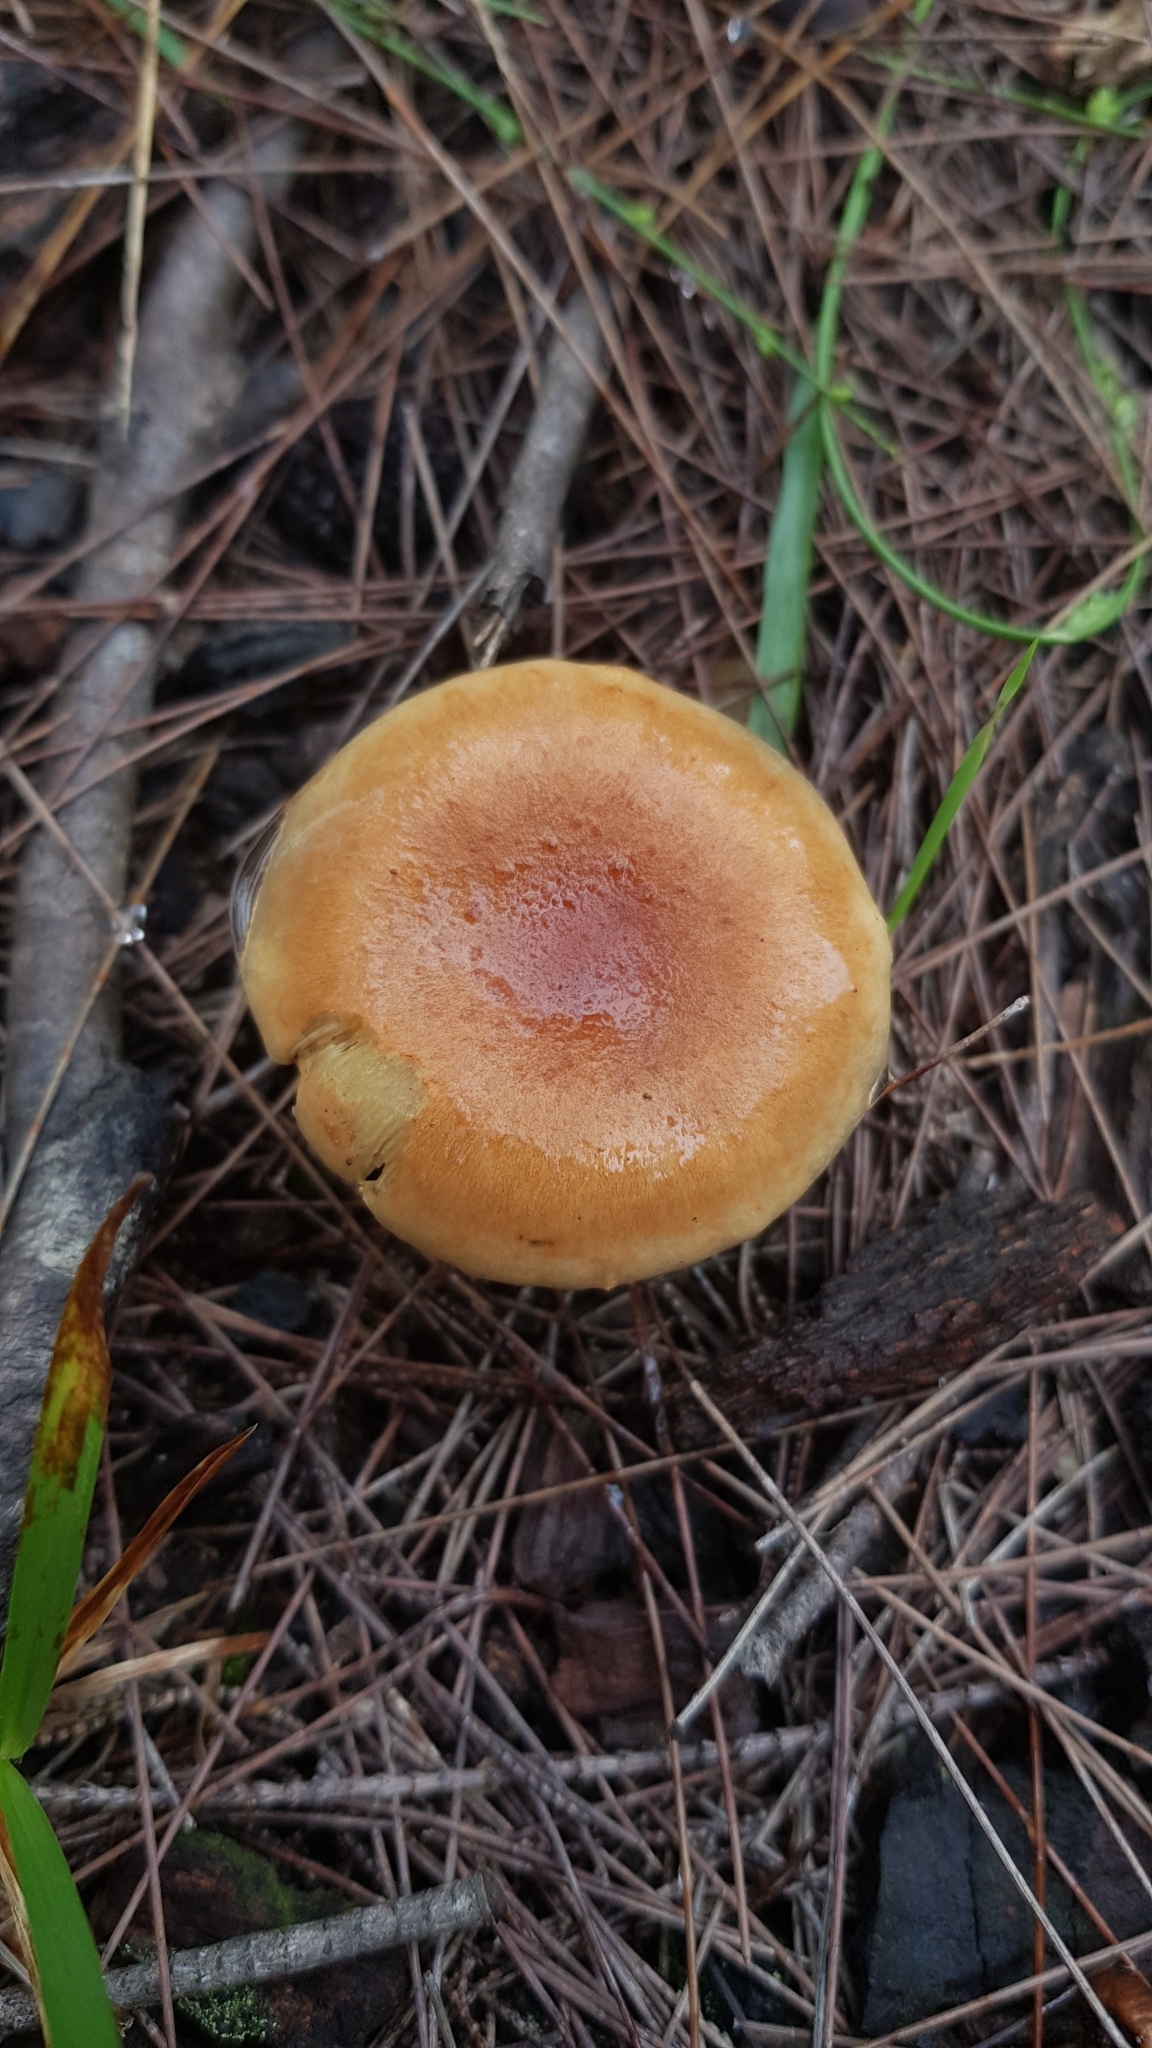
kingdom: Fungi
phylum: Basidiomycota
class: Agaricomycetes
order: Agaricales
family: Strophariaceae
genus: Pholiota
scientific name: Pholiota communis
